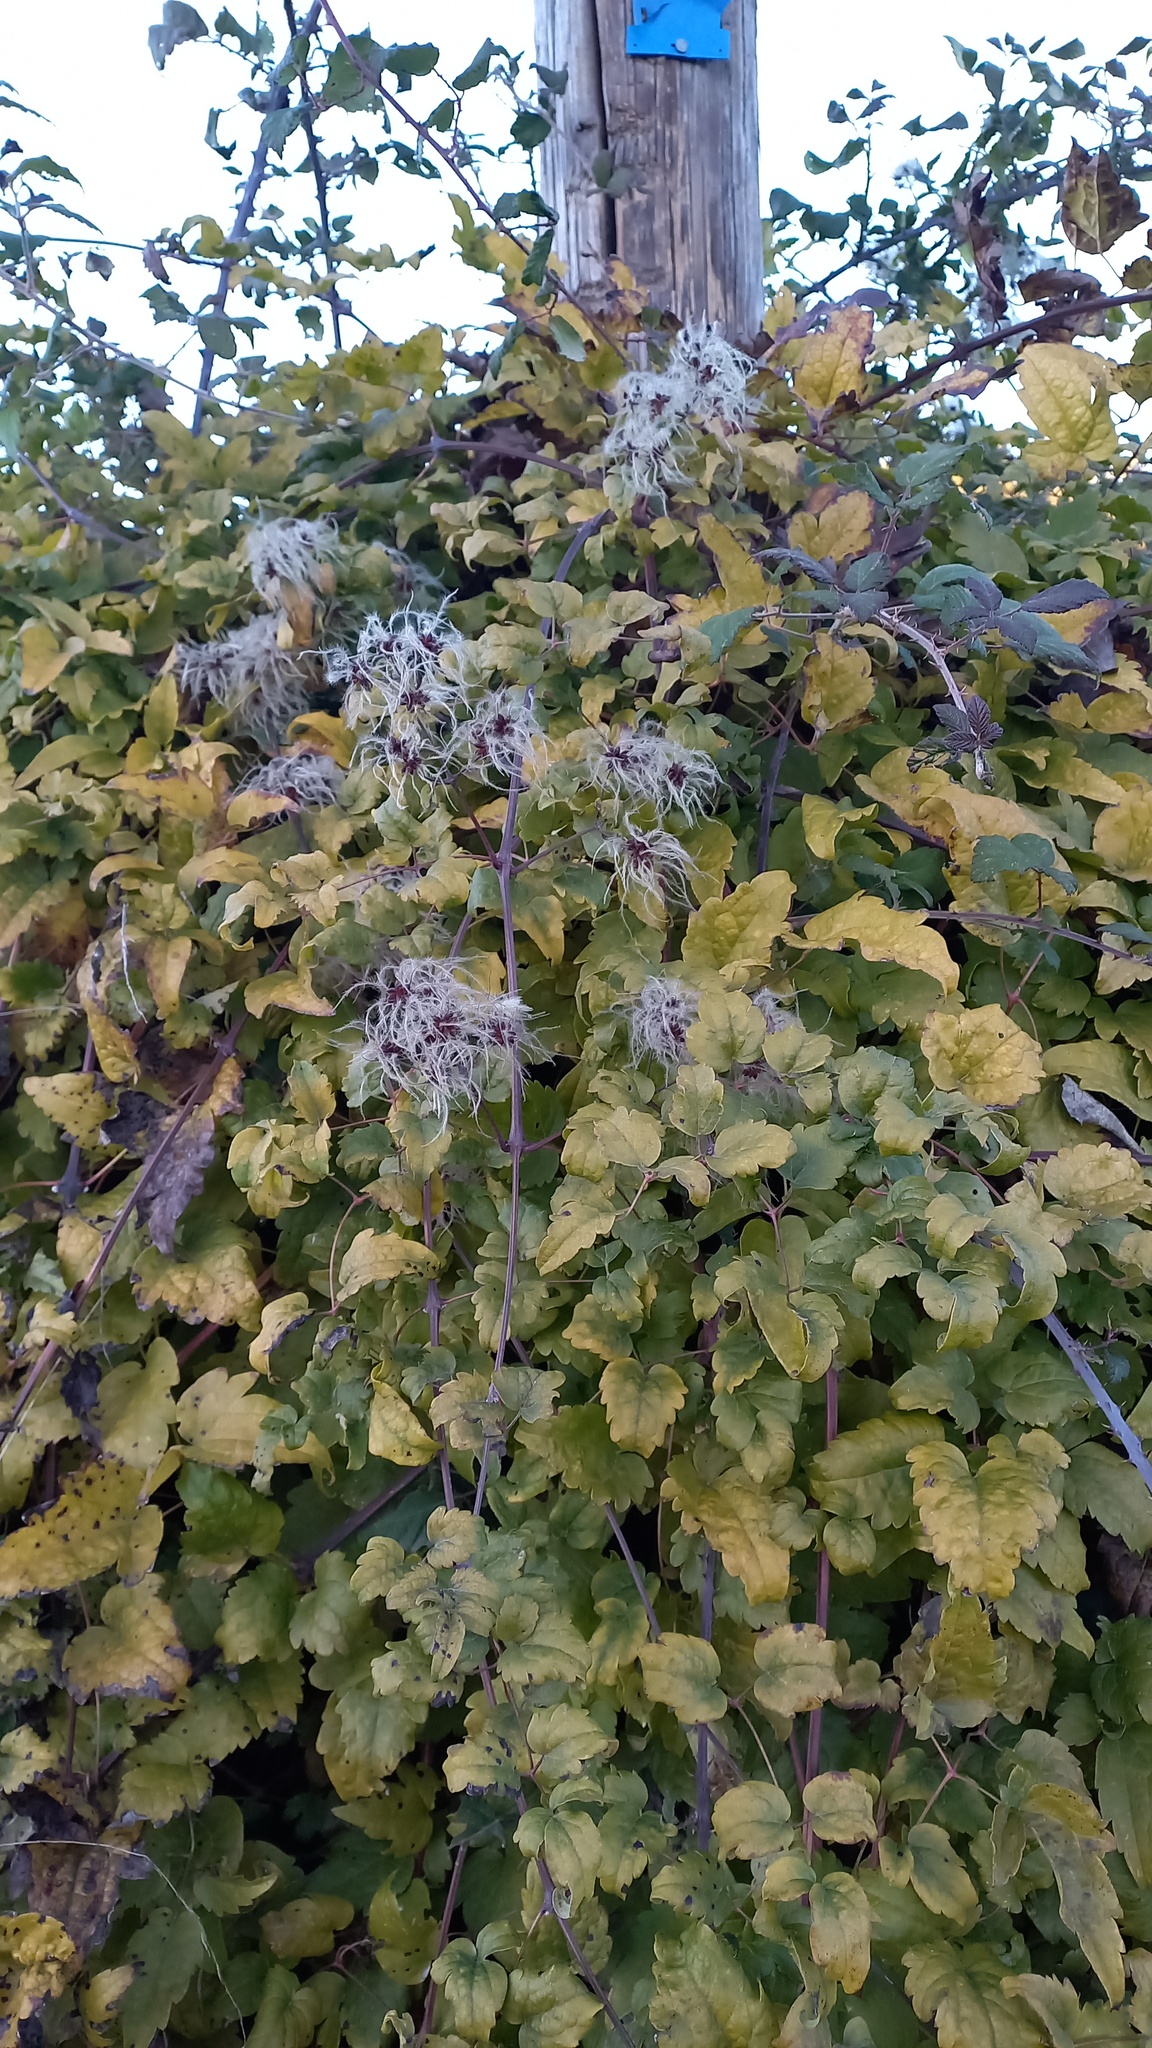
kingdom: Plantae
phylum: Tracheophyta
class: Magnoliopsida
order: Ranunculales
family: Ranunculaceae
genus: Clematis
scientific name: Clematis vitalba
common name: Evergreen clematis
